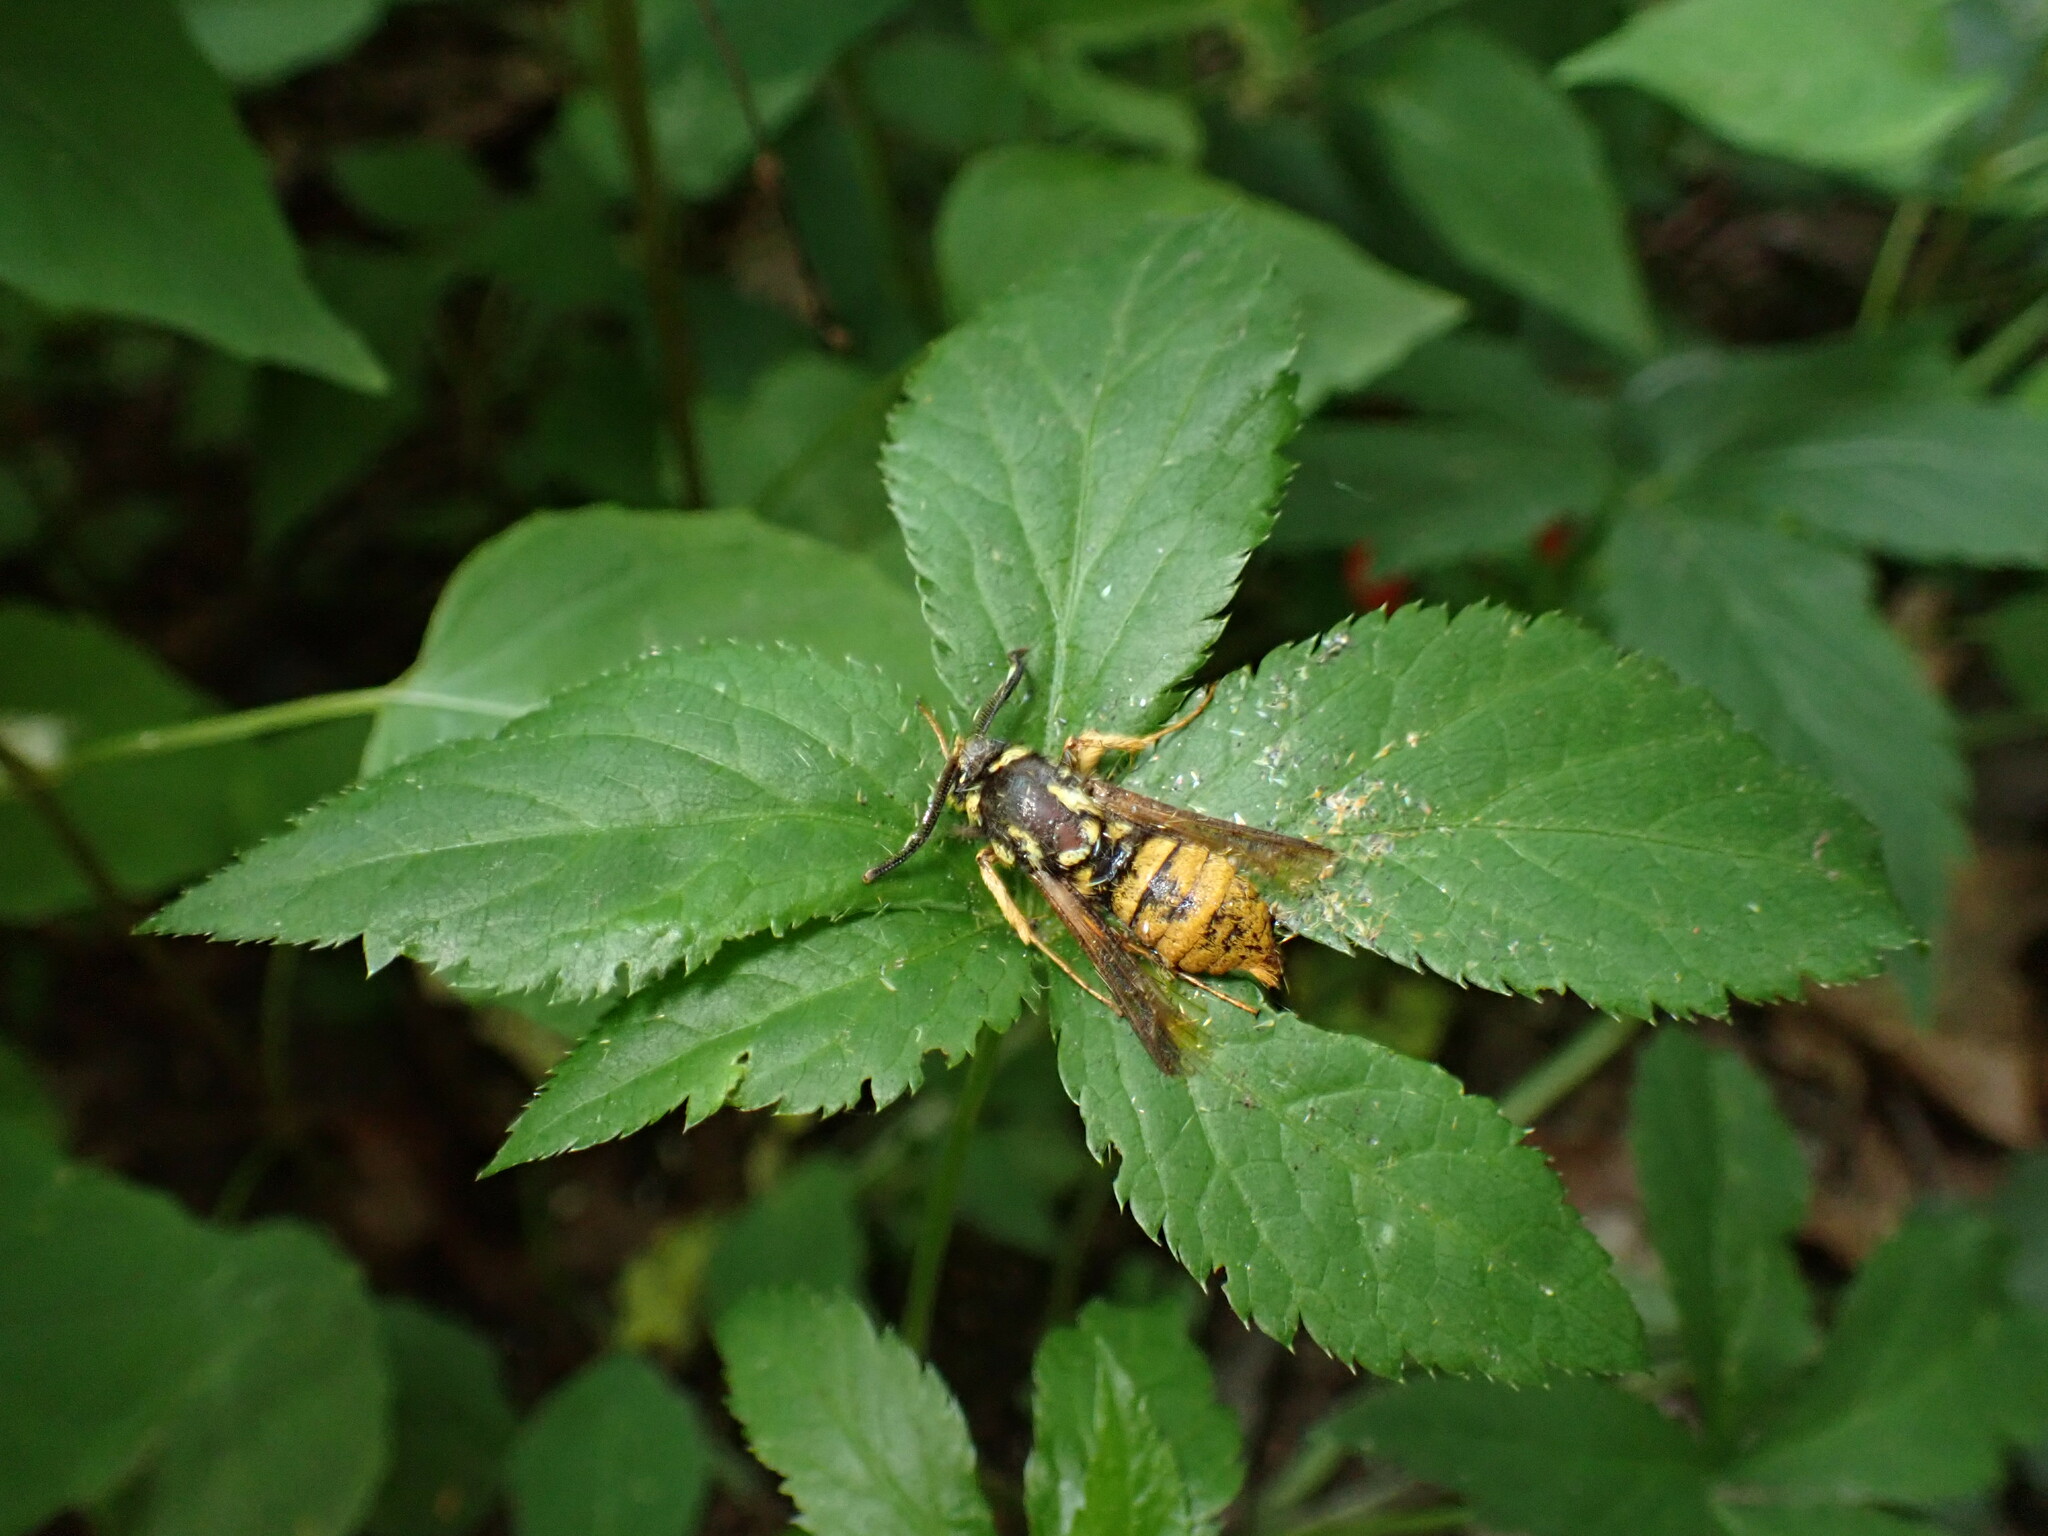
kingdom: Animalia
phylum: Arthropoda
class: Insecta
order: Lepidoptera
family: Sesiidae
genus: Paranthrene
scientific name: Paranthrene simulans
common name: Hornet clearwing moth
